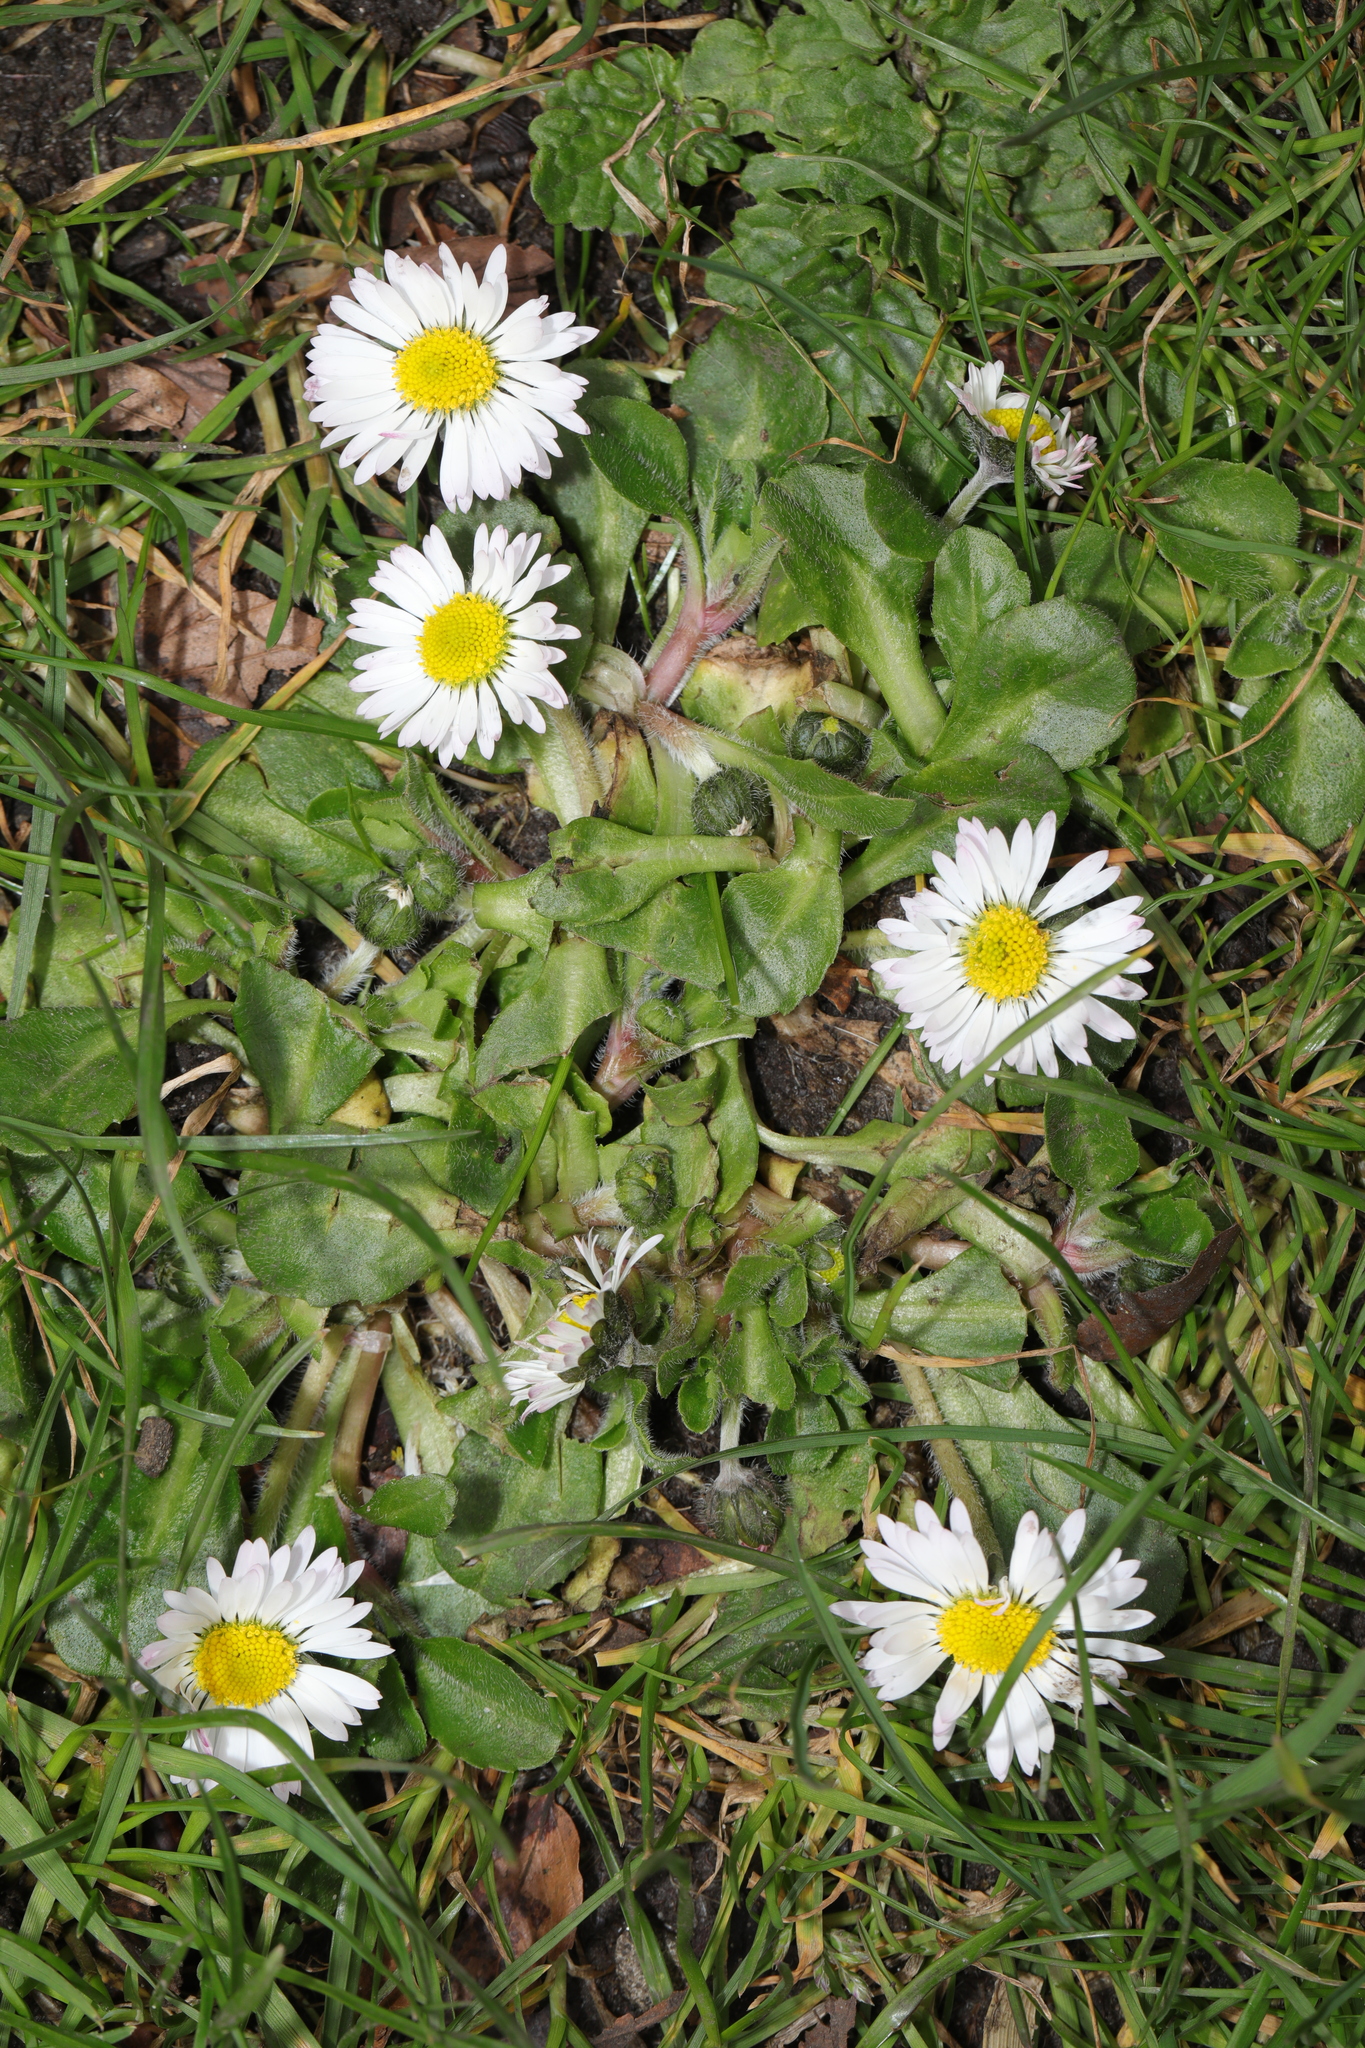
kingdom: Plantae
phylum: Tracheophyta
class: Magnoliopsida
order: Asterales
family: Asteraceae
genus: Bellis
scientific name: Bellis perennis
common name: Lawndaisy
